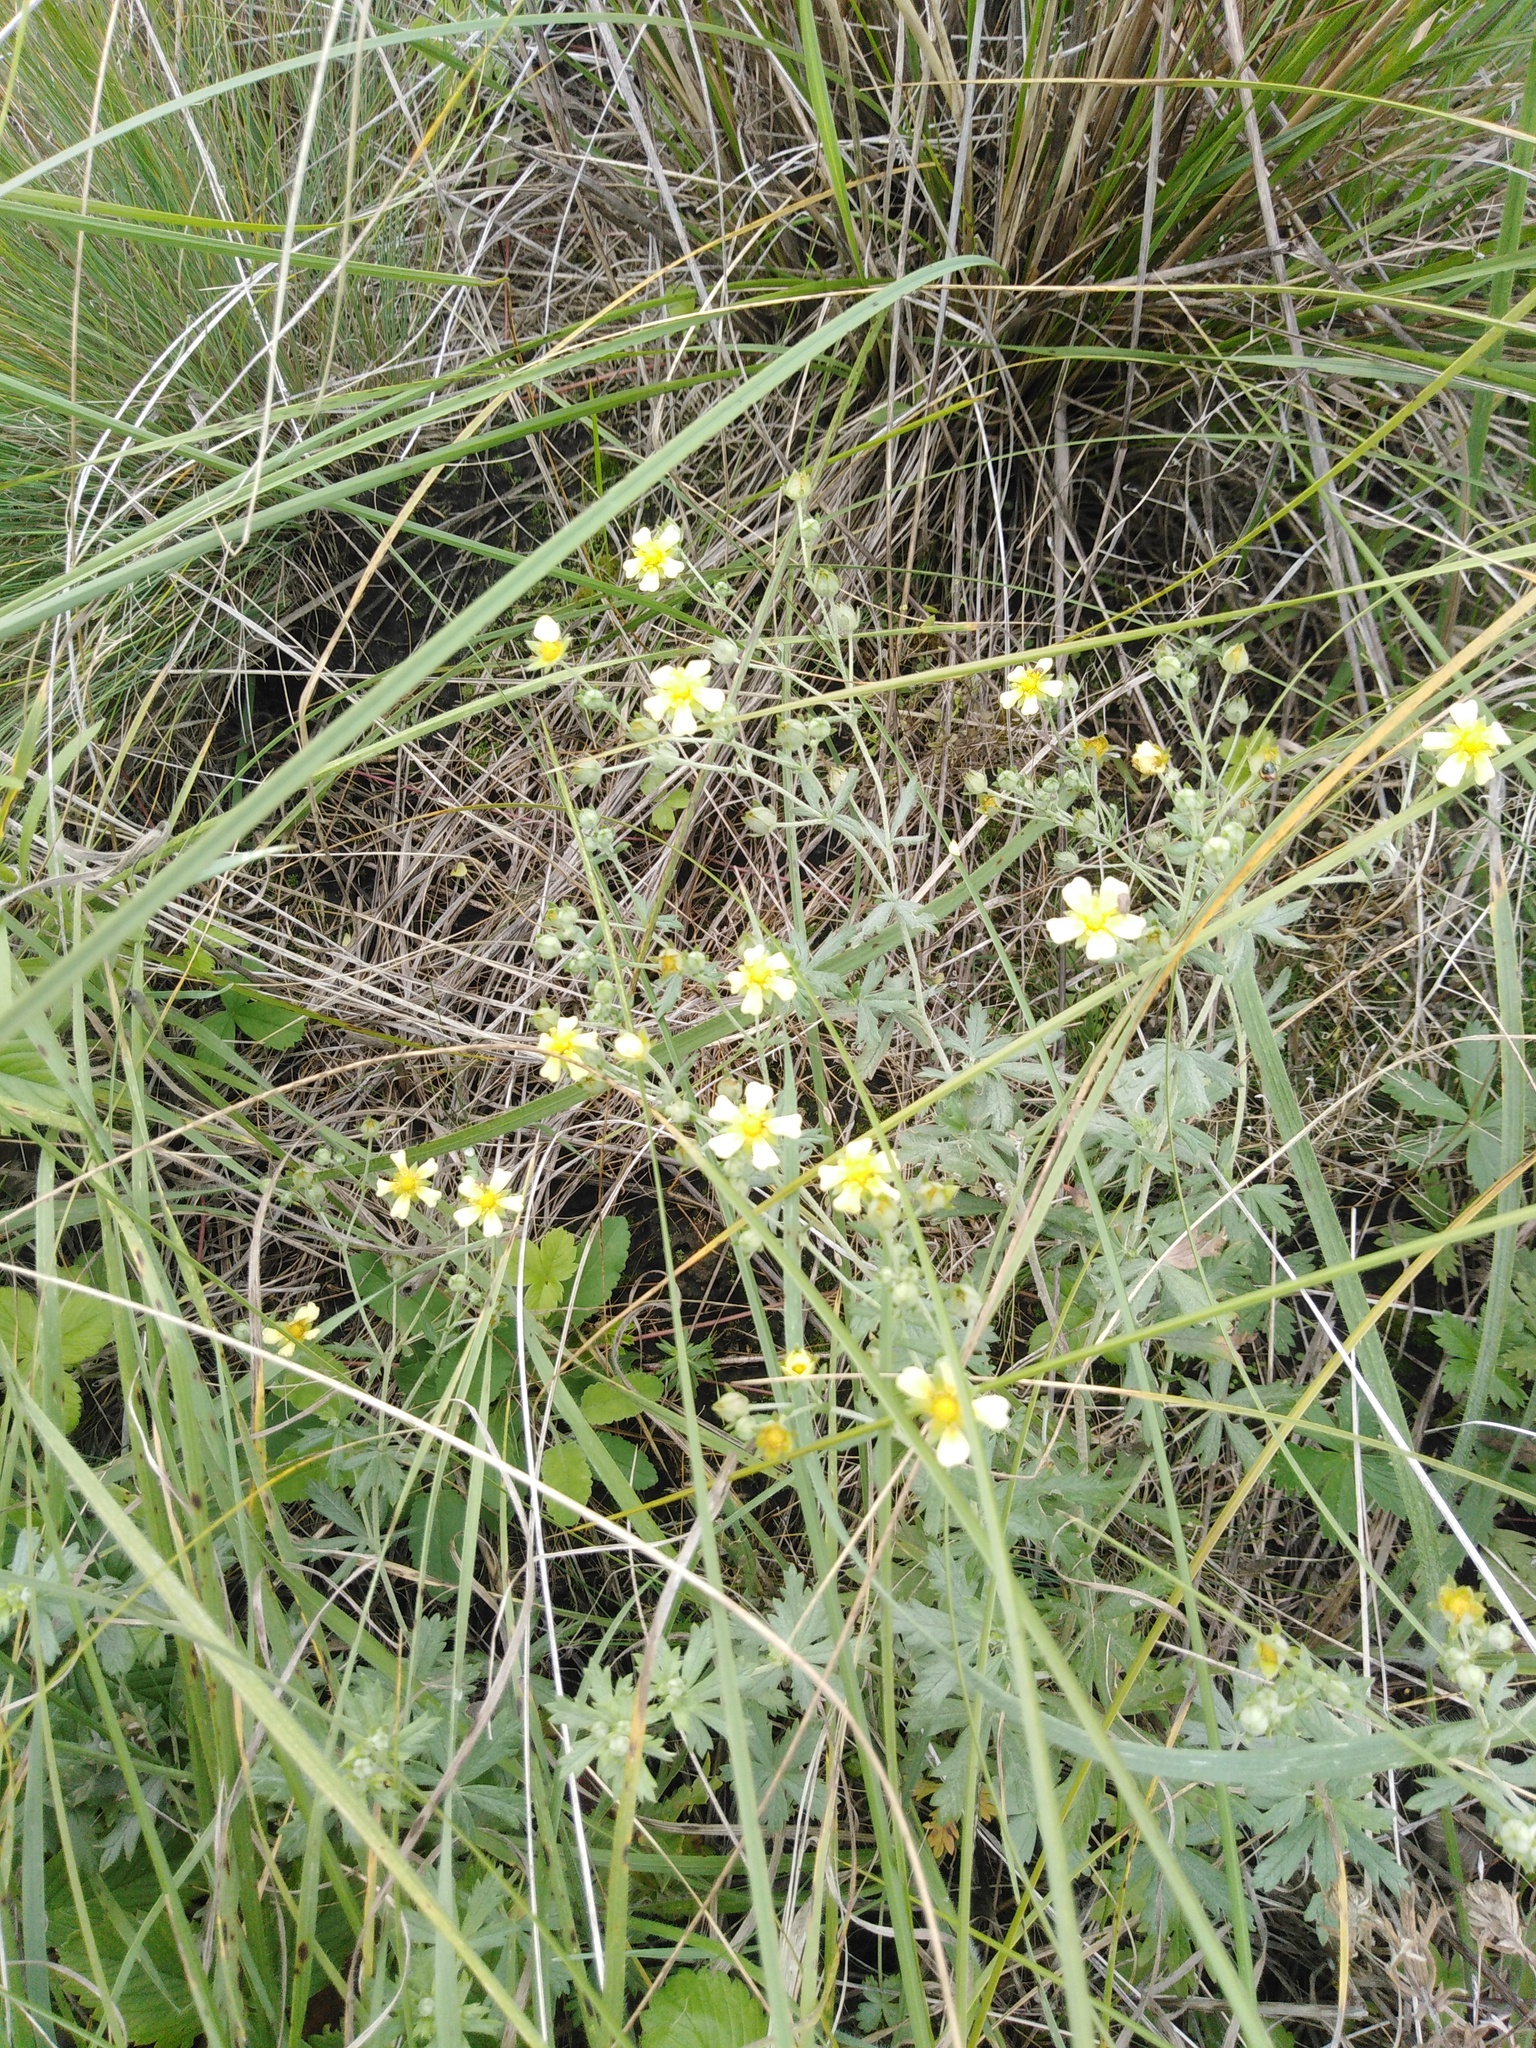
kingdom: Plantae
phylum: Tracheophyta
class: Magnoliopsida
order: Rosales
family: Rosaceae
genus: Potentilla
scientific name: Potentilla argentea
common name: Hoary cinquefoil
